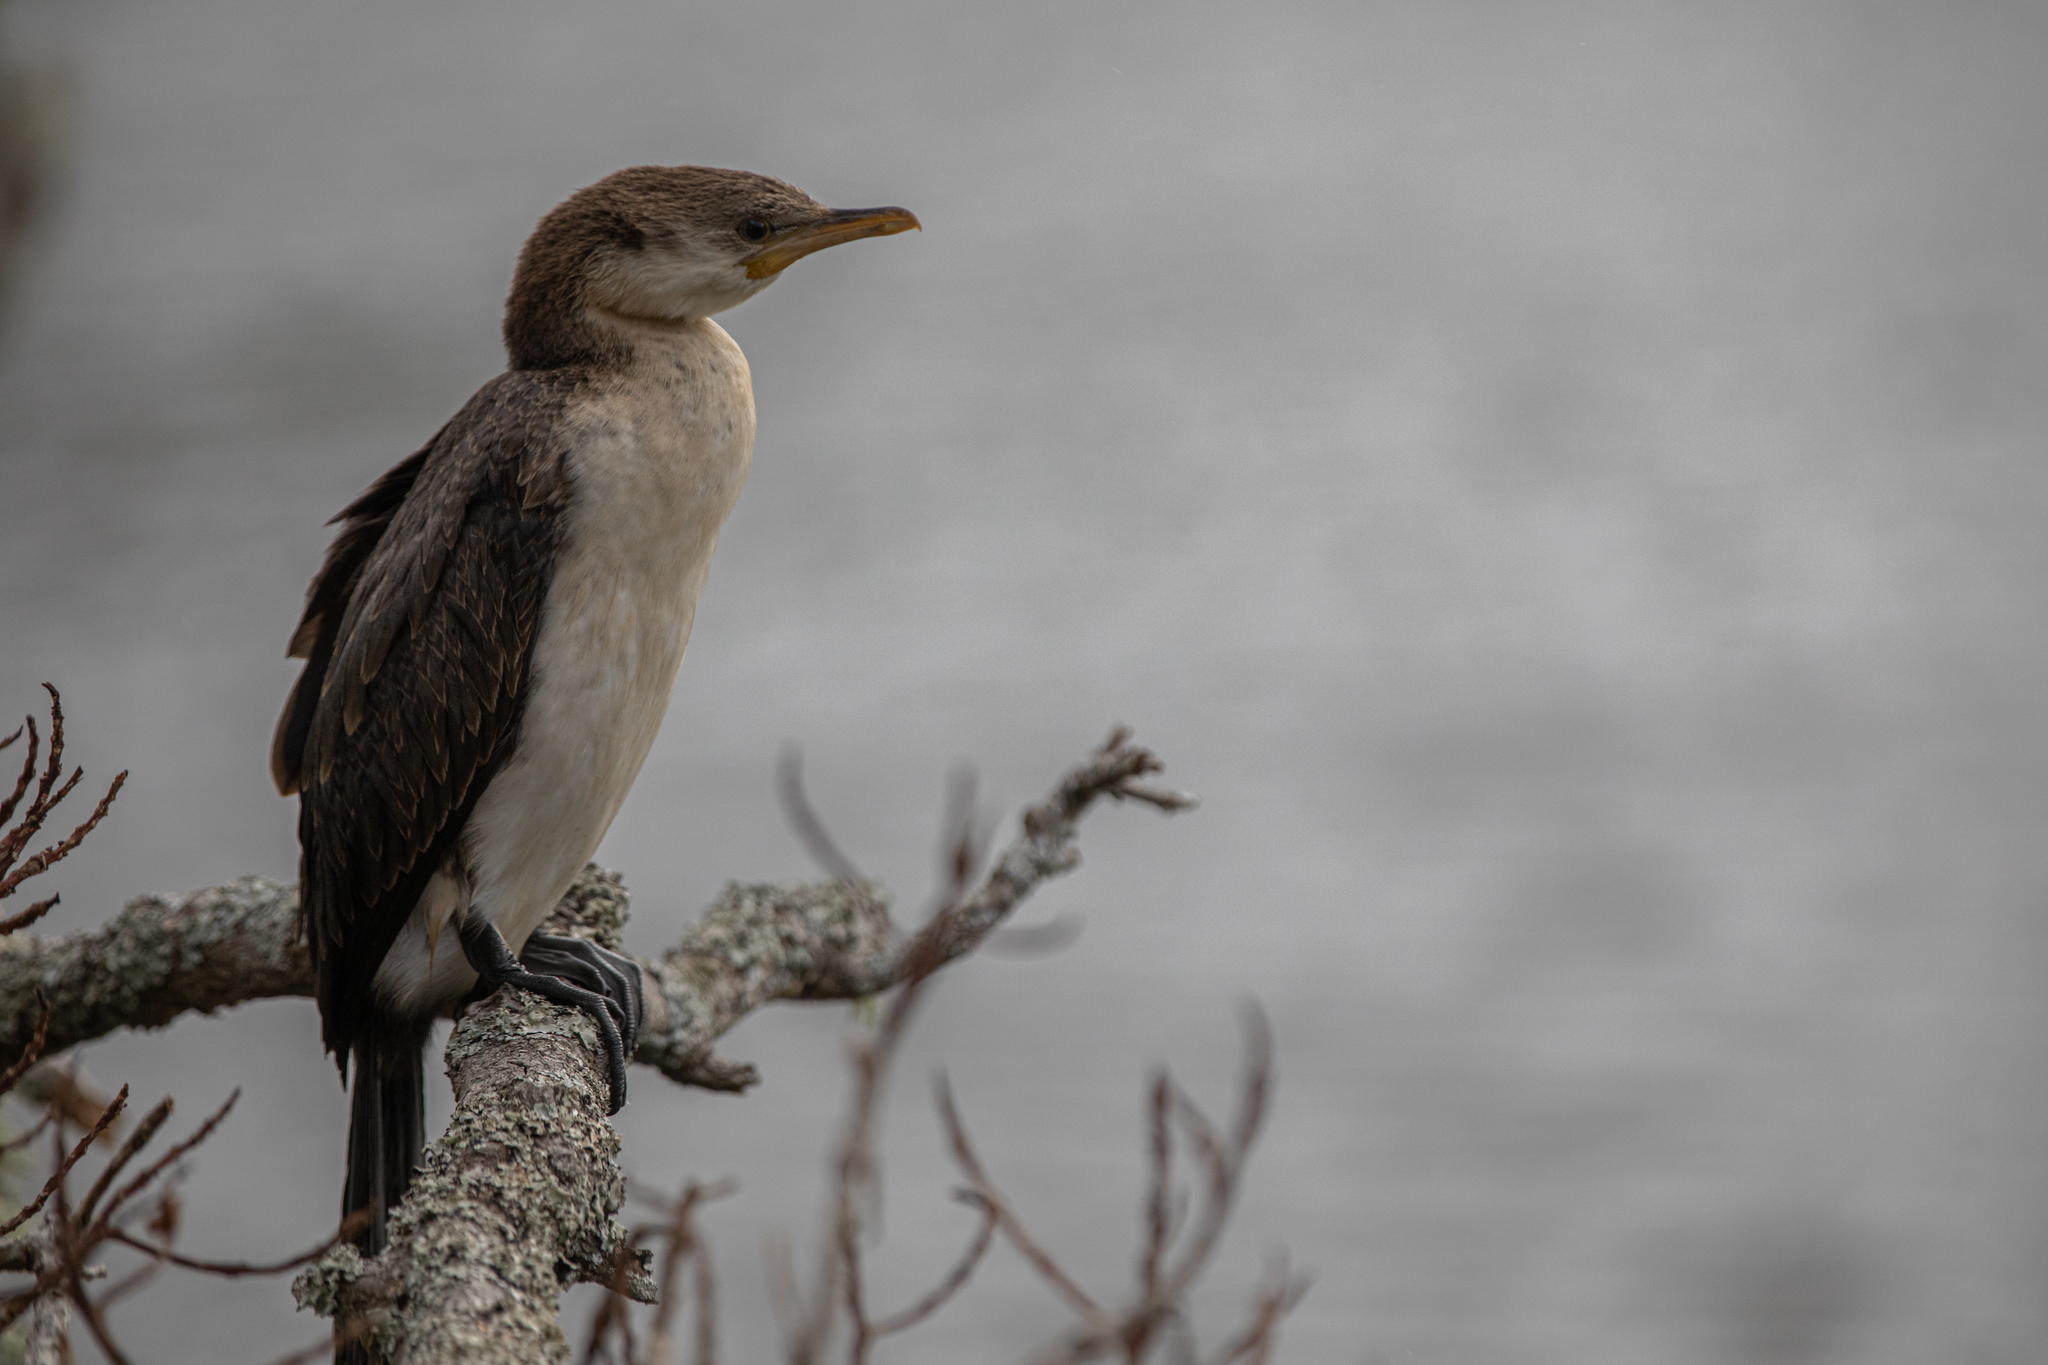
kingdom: Animalia
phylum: Chordata
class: Aves
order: Suliformes
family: Phalacrocoracidae
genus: Microcarbo
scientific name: Microcarbo melanoleucos
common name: Little pied cormorant
